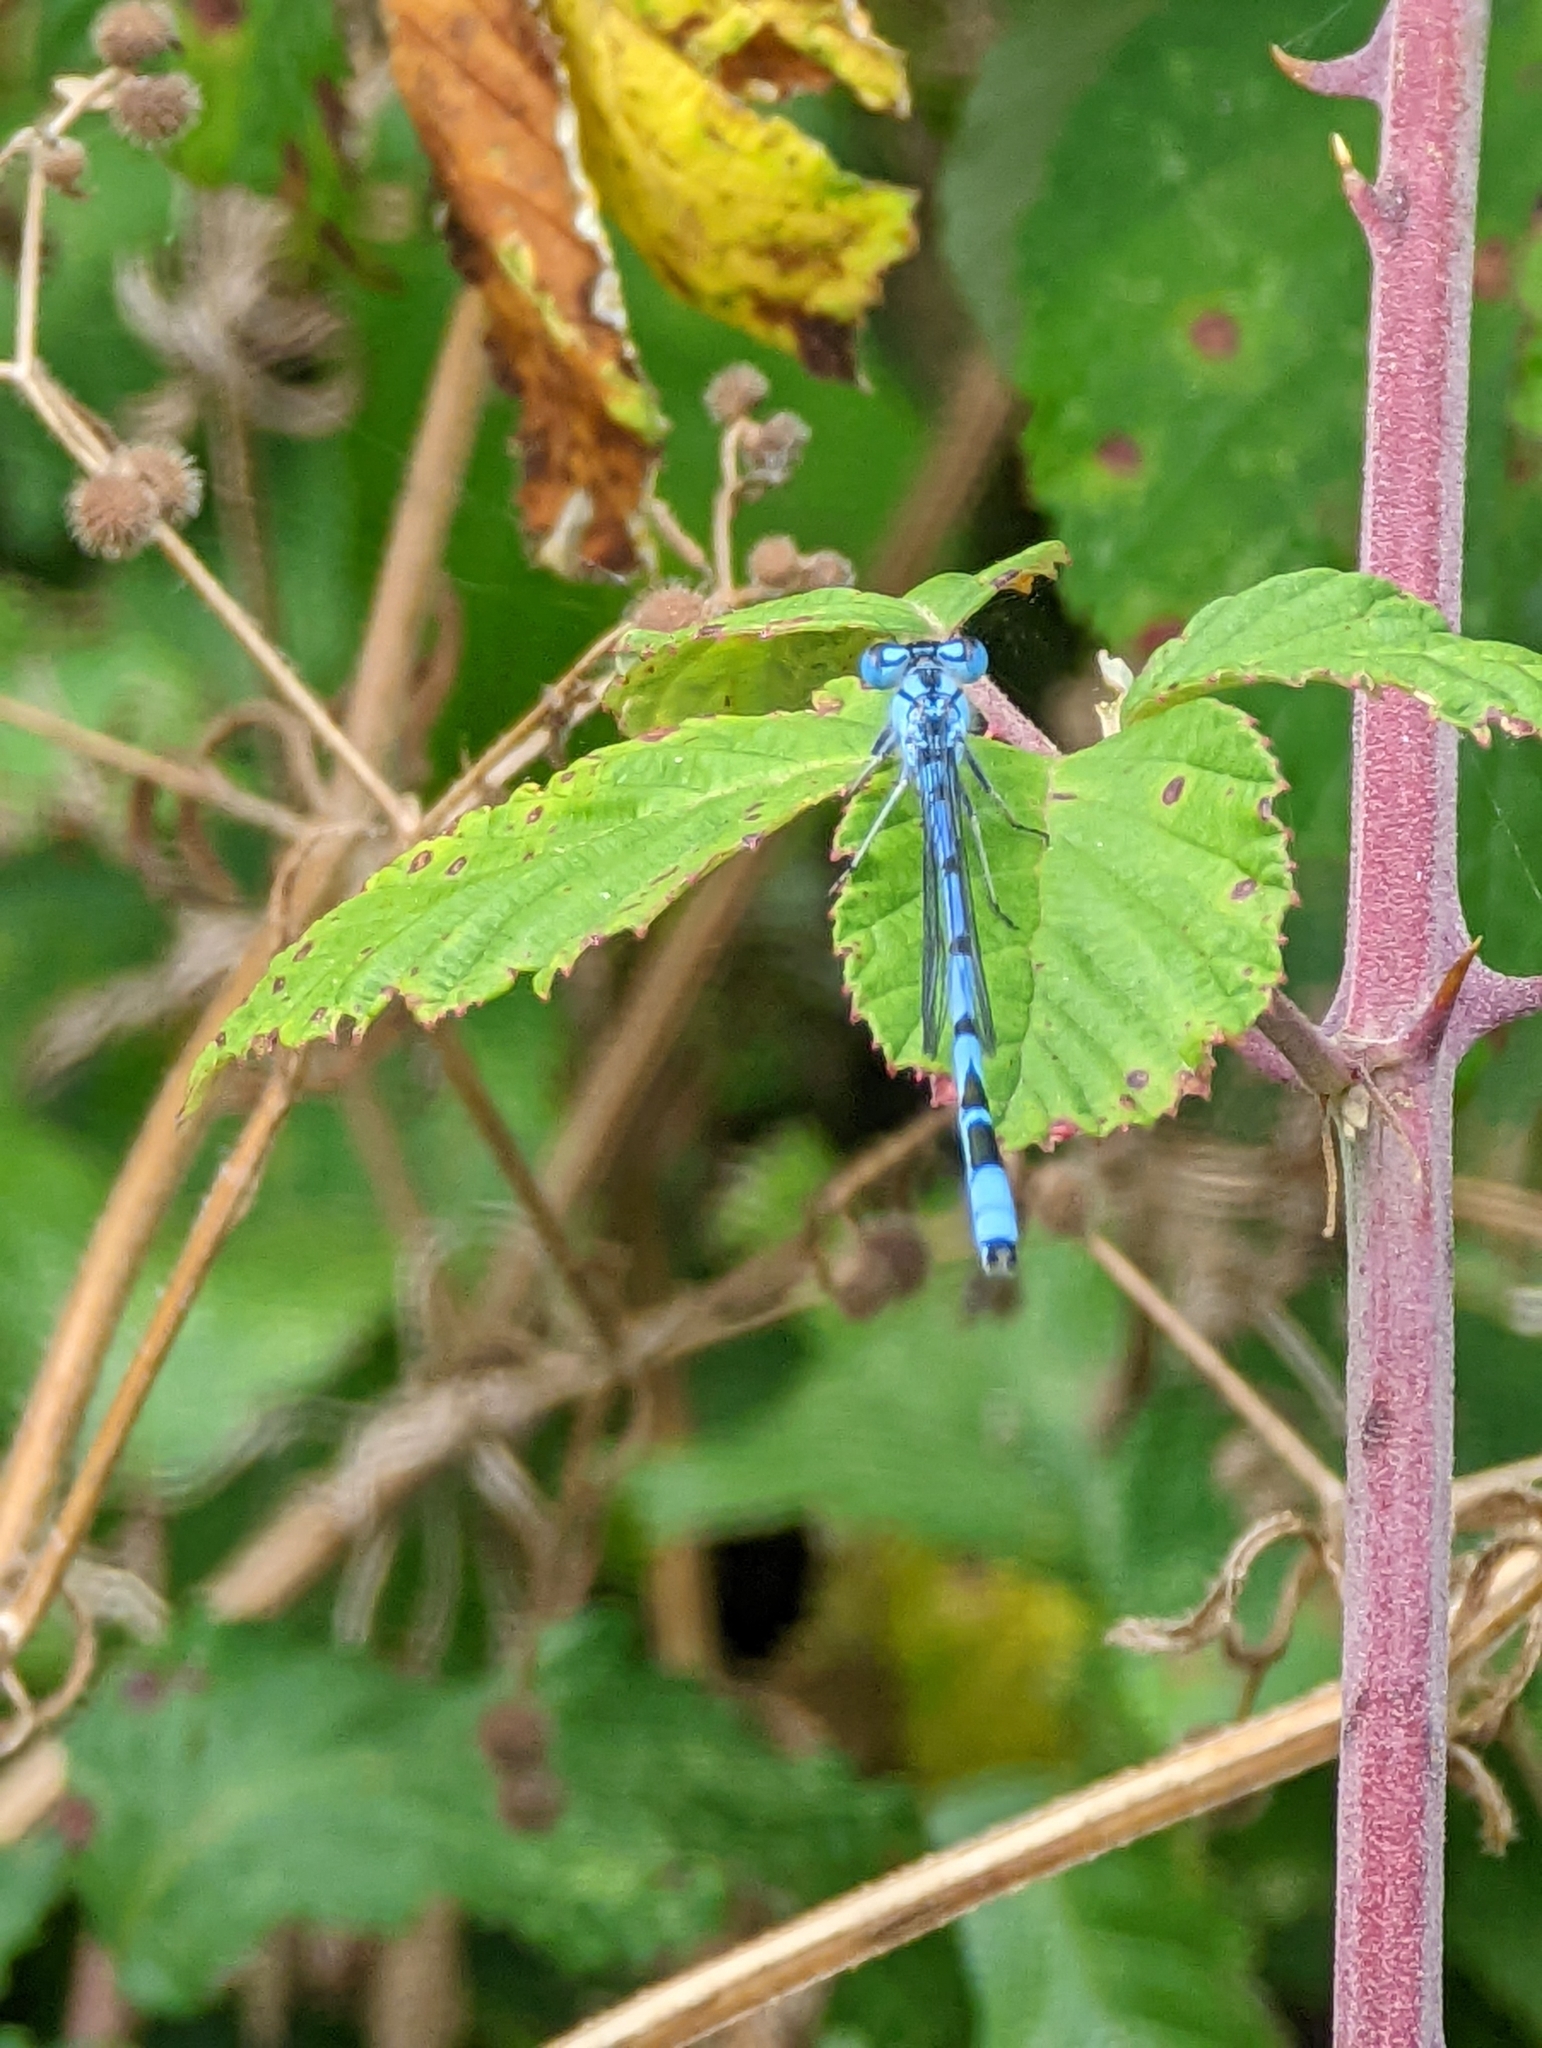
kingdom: Animalia
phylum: Arthropoda
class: Insecta
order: Odonata
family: Coenagrionidae
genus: Enallagma
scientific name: Enallagma cyathigerum
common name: Common blue damselfly
